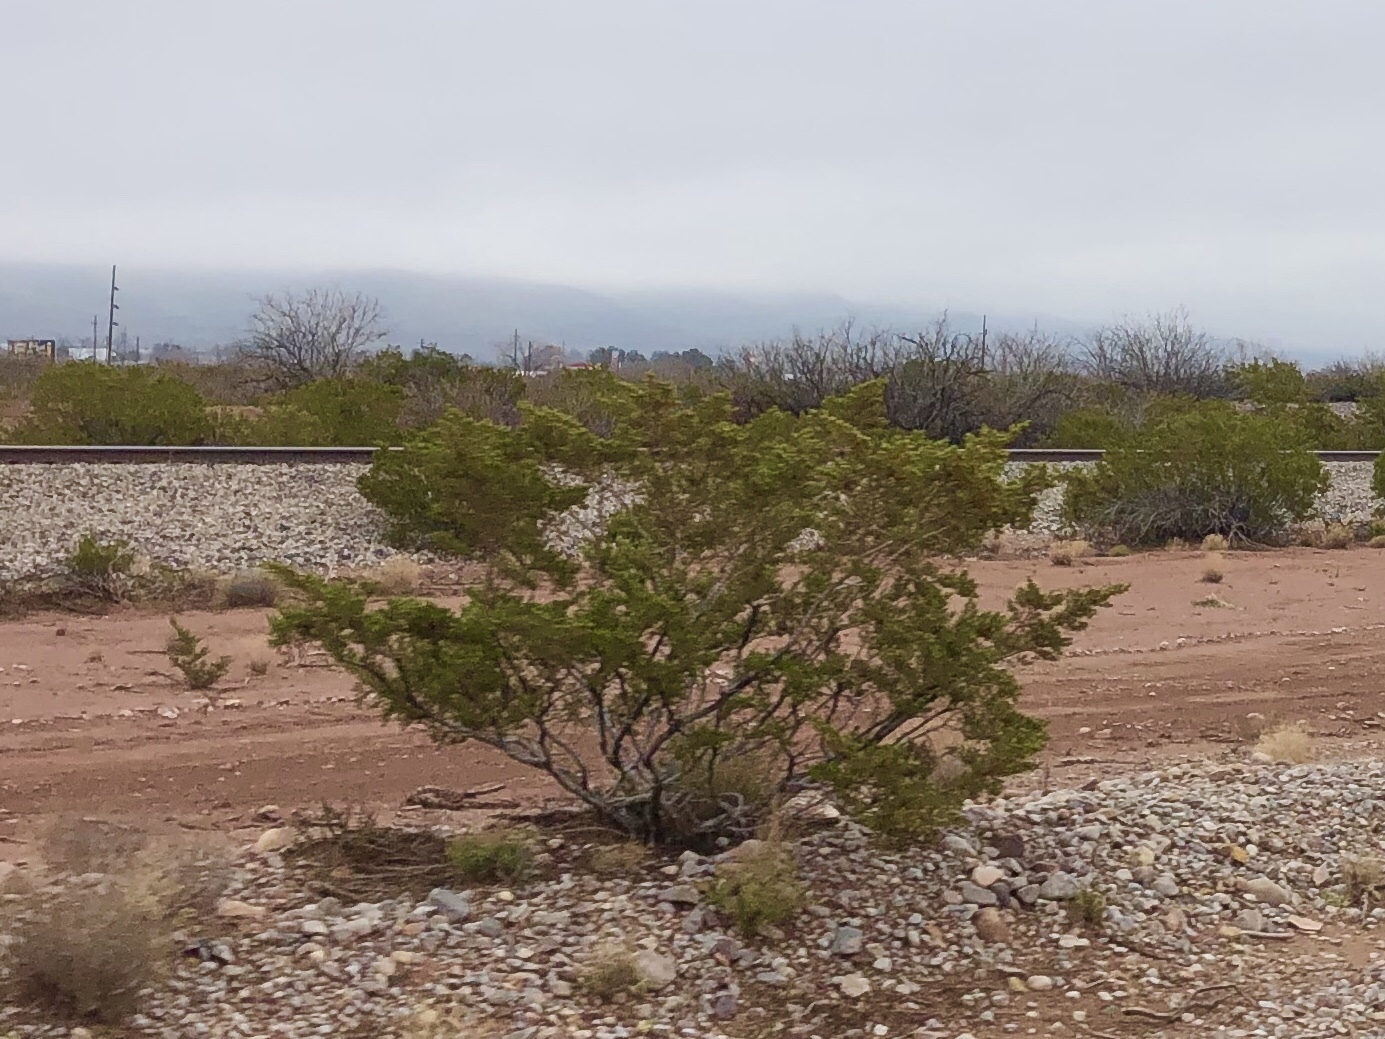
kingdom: Plantae
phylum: Tracheophyta
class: Magnoliopsida
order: Zygophyllales
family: Zygophyllaceae
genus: Larrea
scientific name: Larrea tridentata
